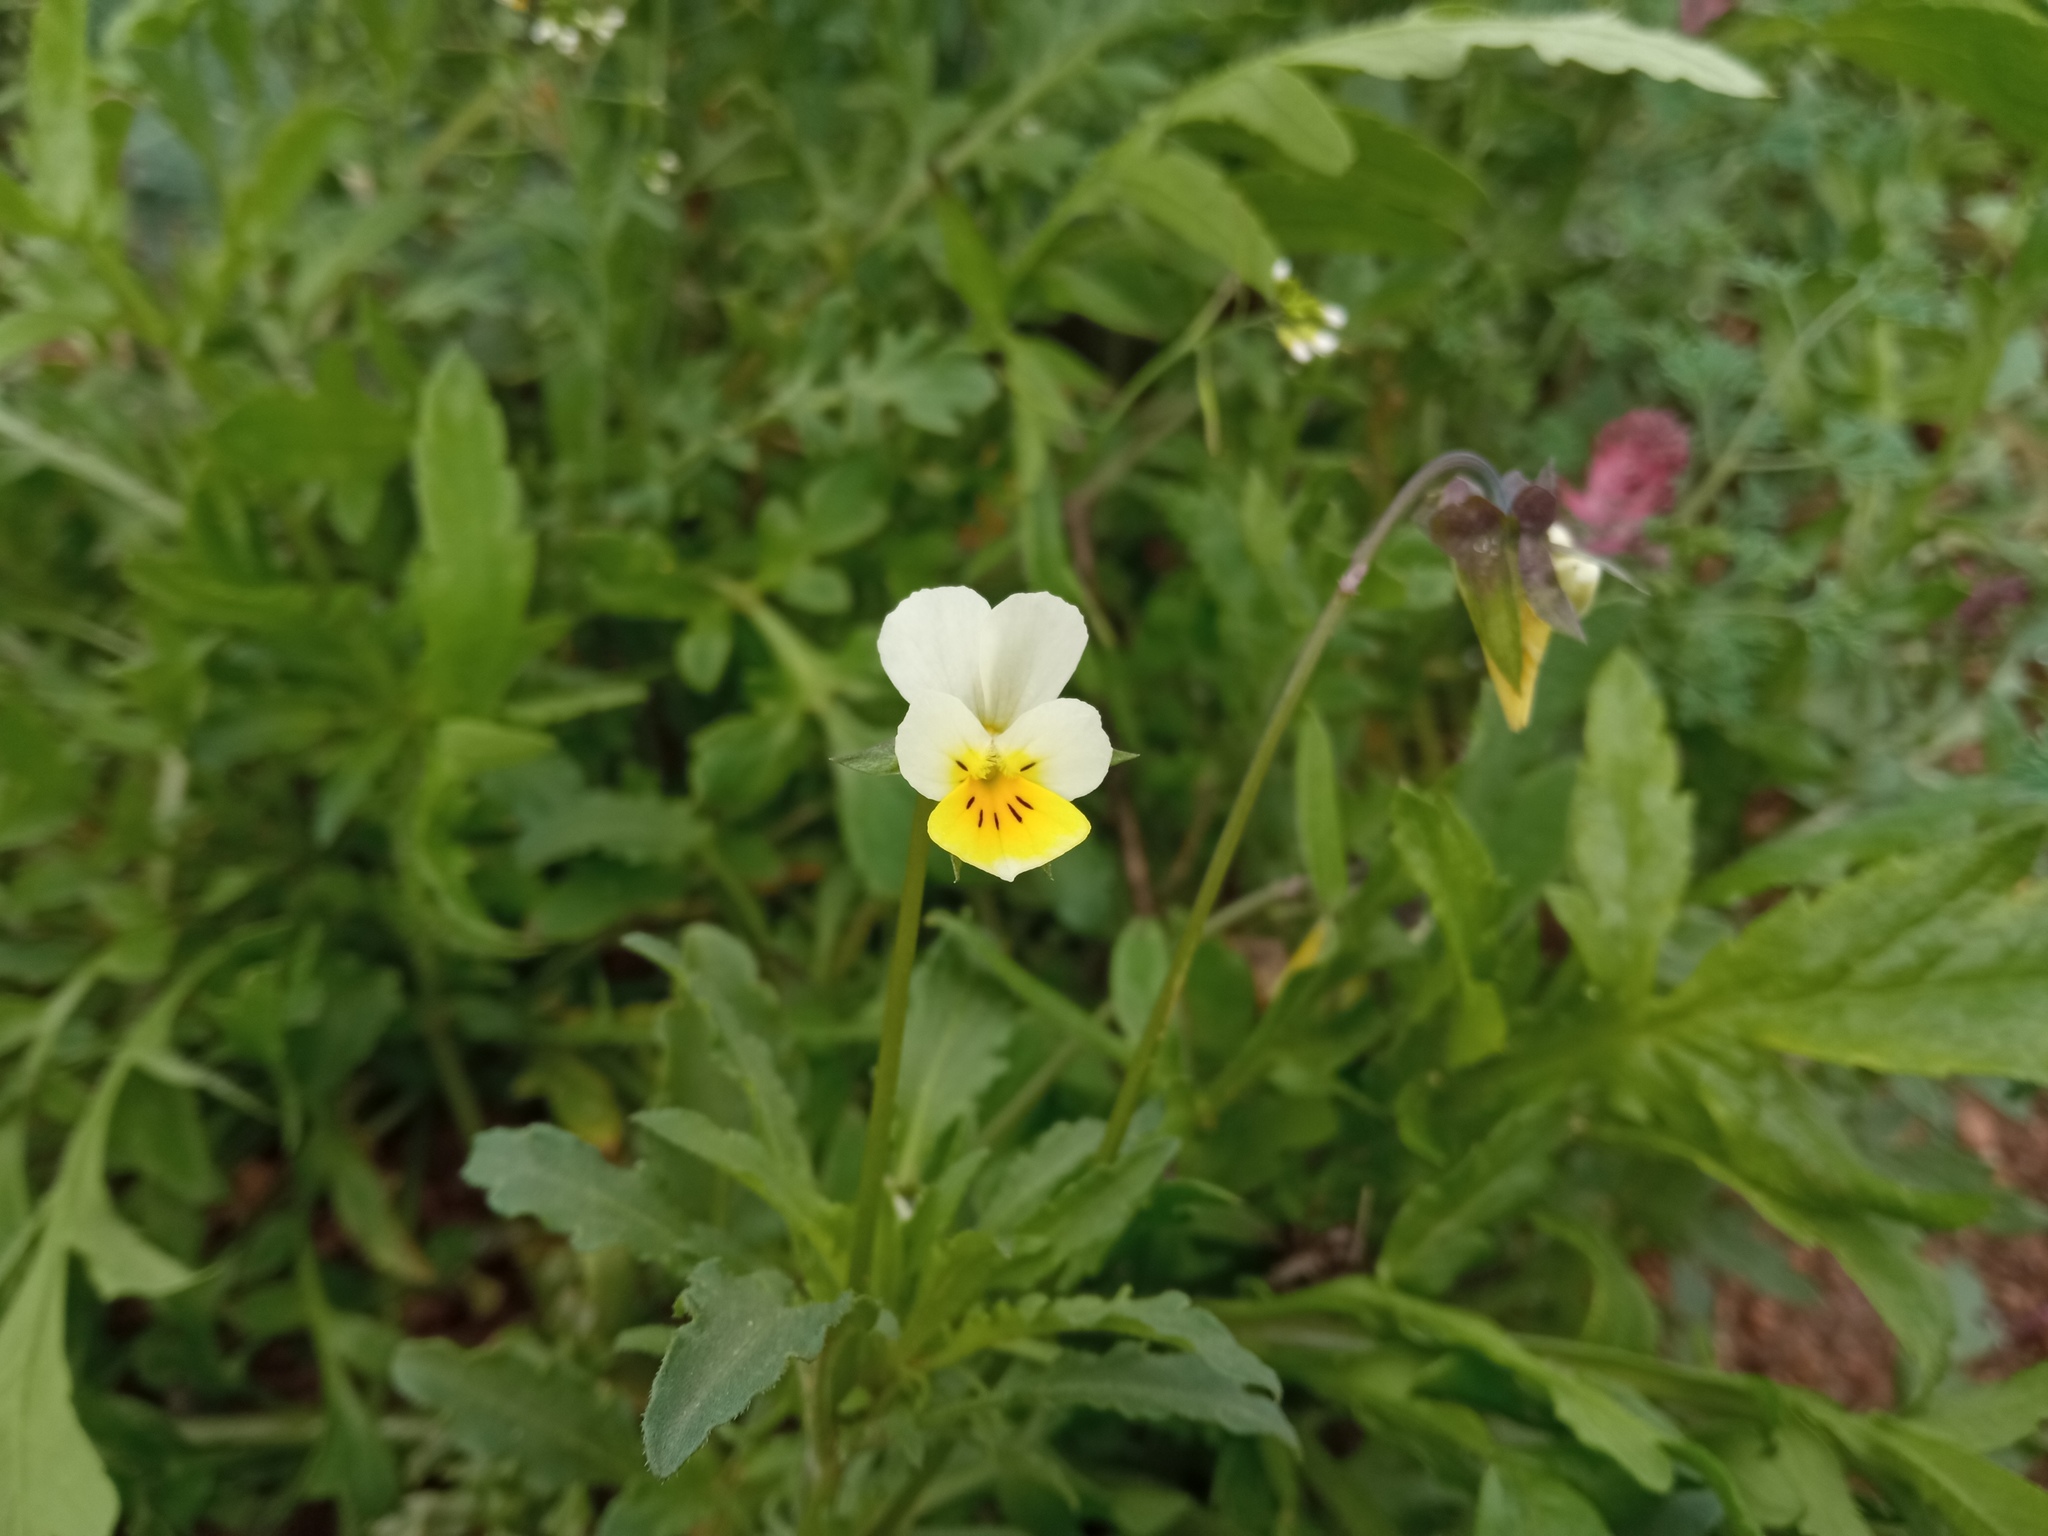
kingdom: Plantae
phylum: Tracheophyta
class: Magnoliopsida
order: Malpighiales
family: Violaceae
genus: Viola
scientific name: Viola arvensis
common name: Field pansy
